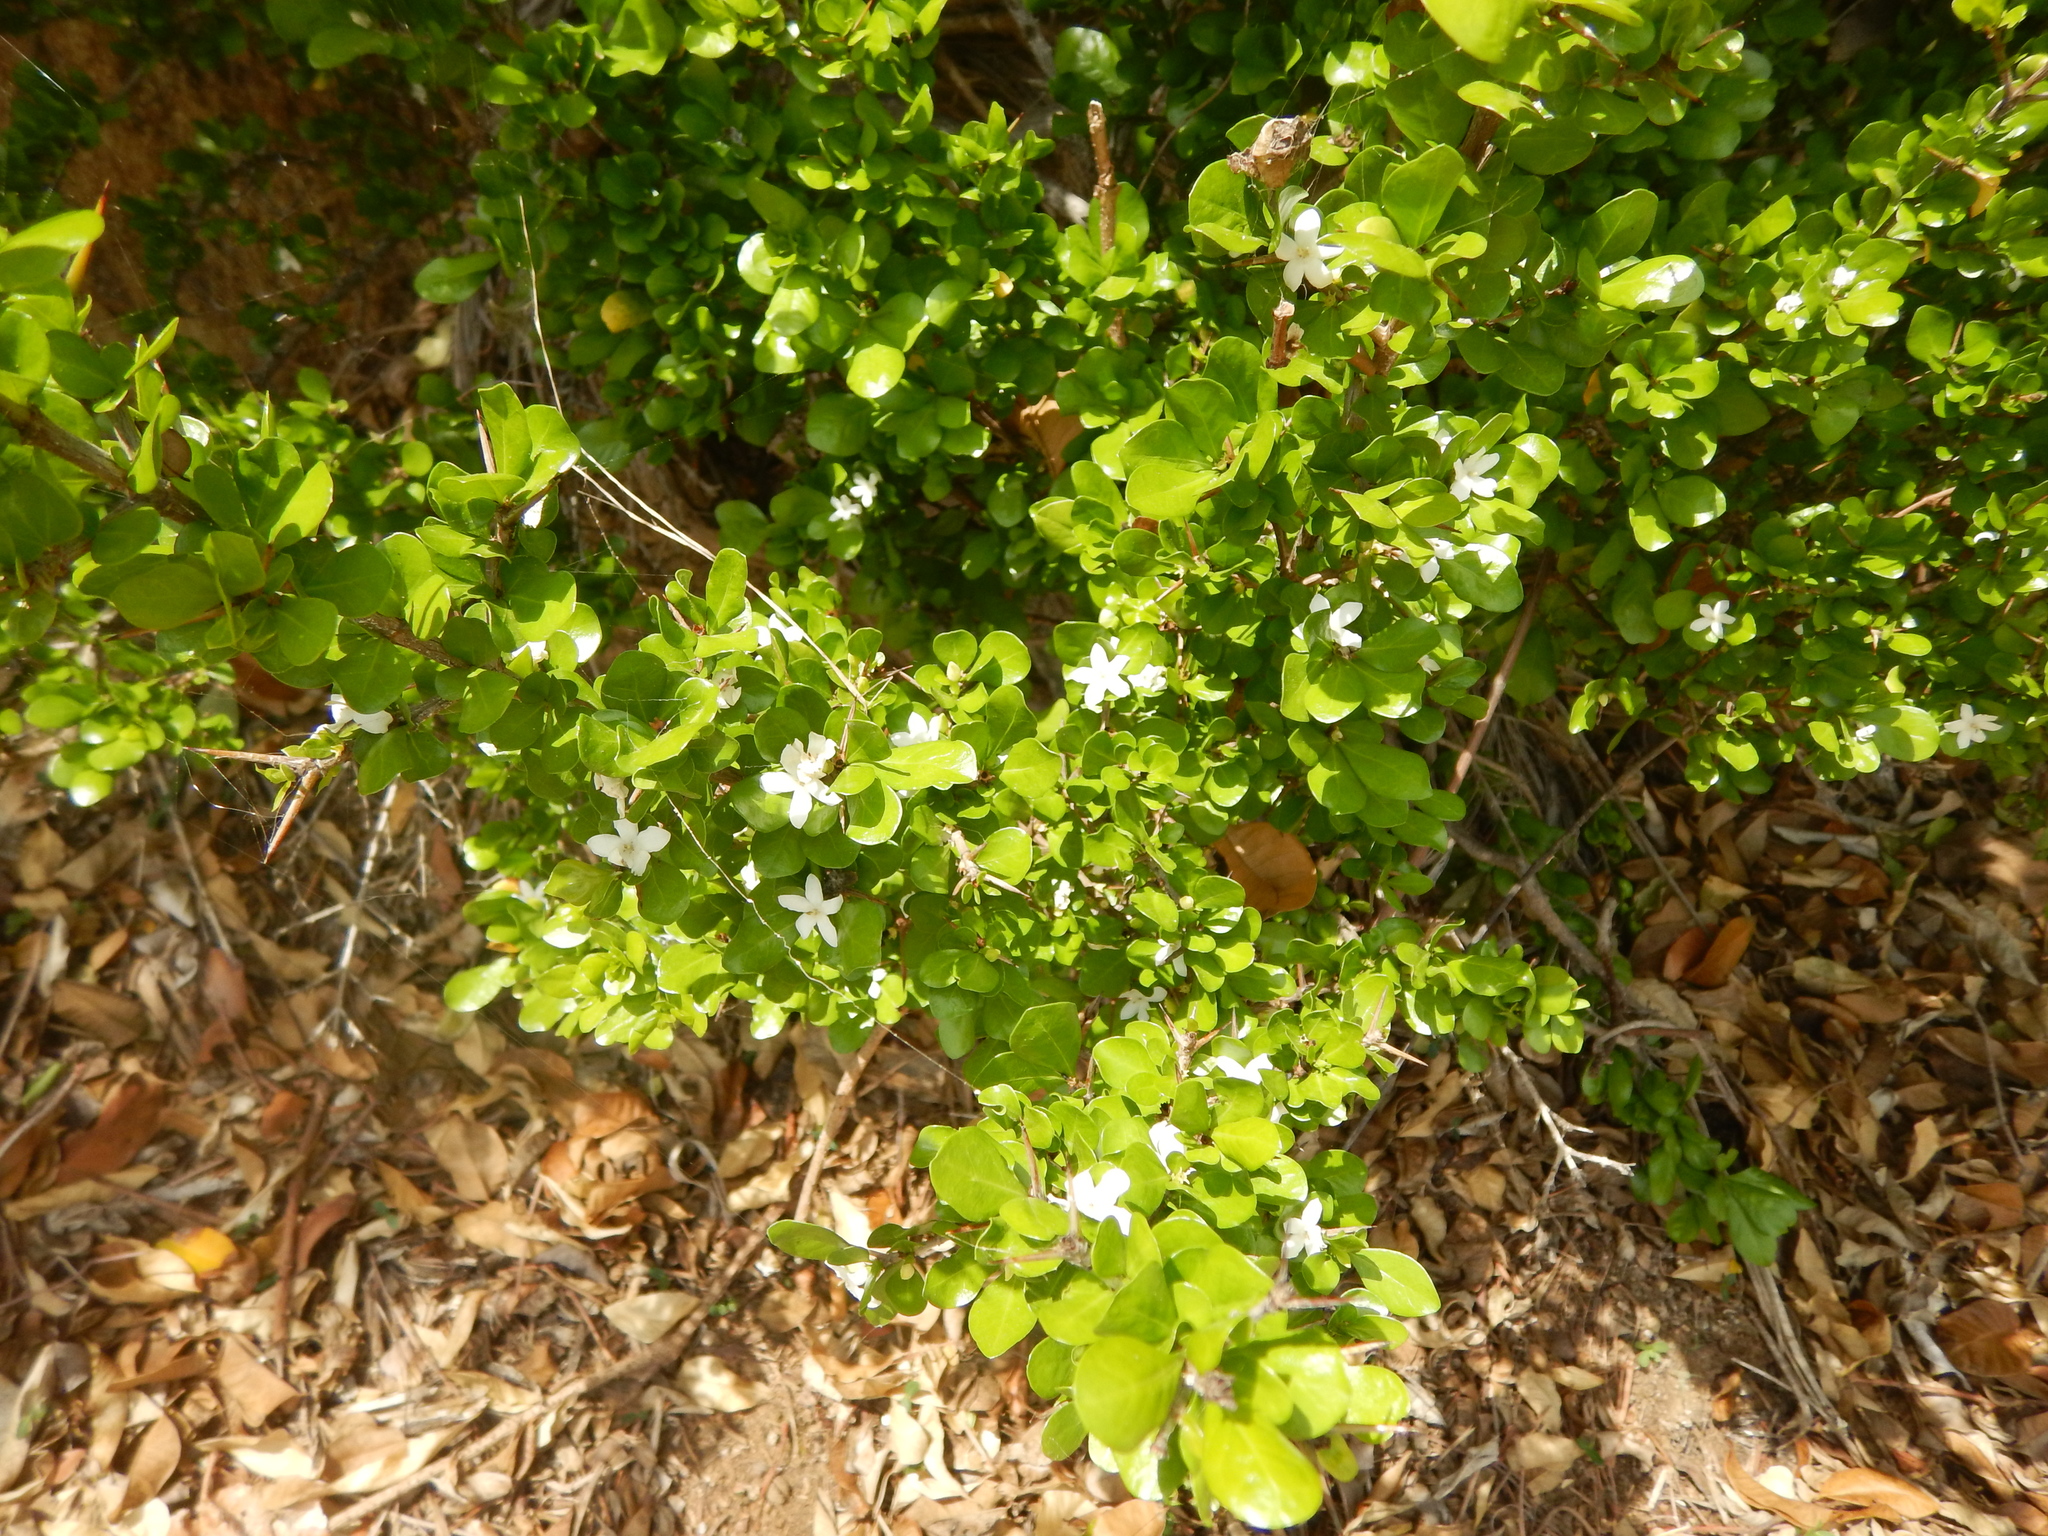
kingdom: Plantae
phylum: Tracheophyta
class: Magnoliopsida
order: Gentianales
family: Rubiaceae
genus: Randia
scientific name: Randia aculeata
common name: Inkberry
